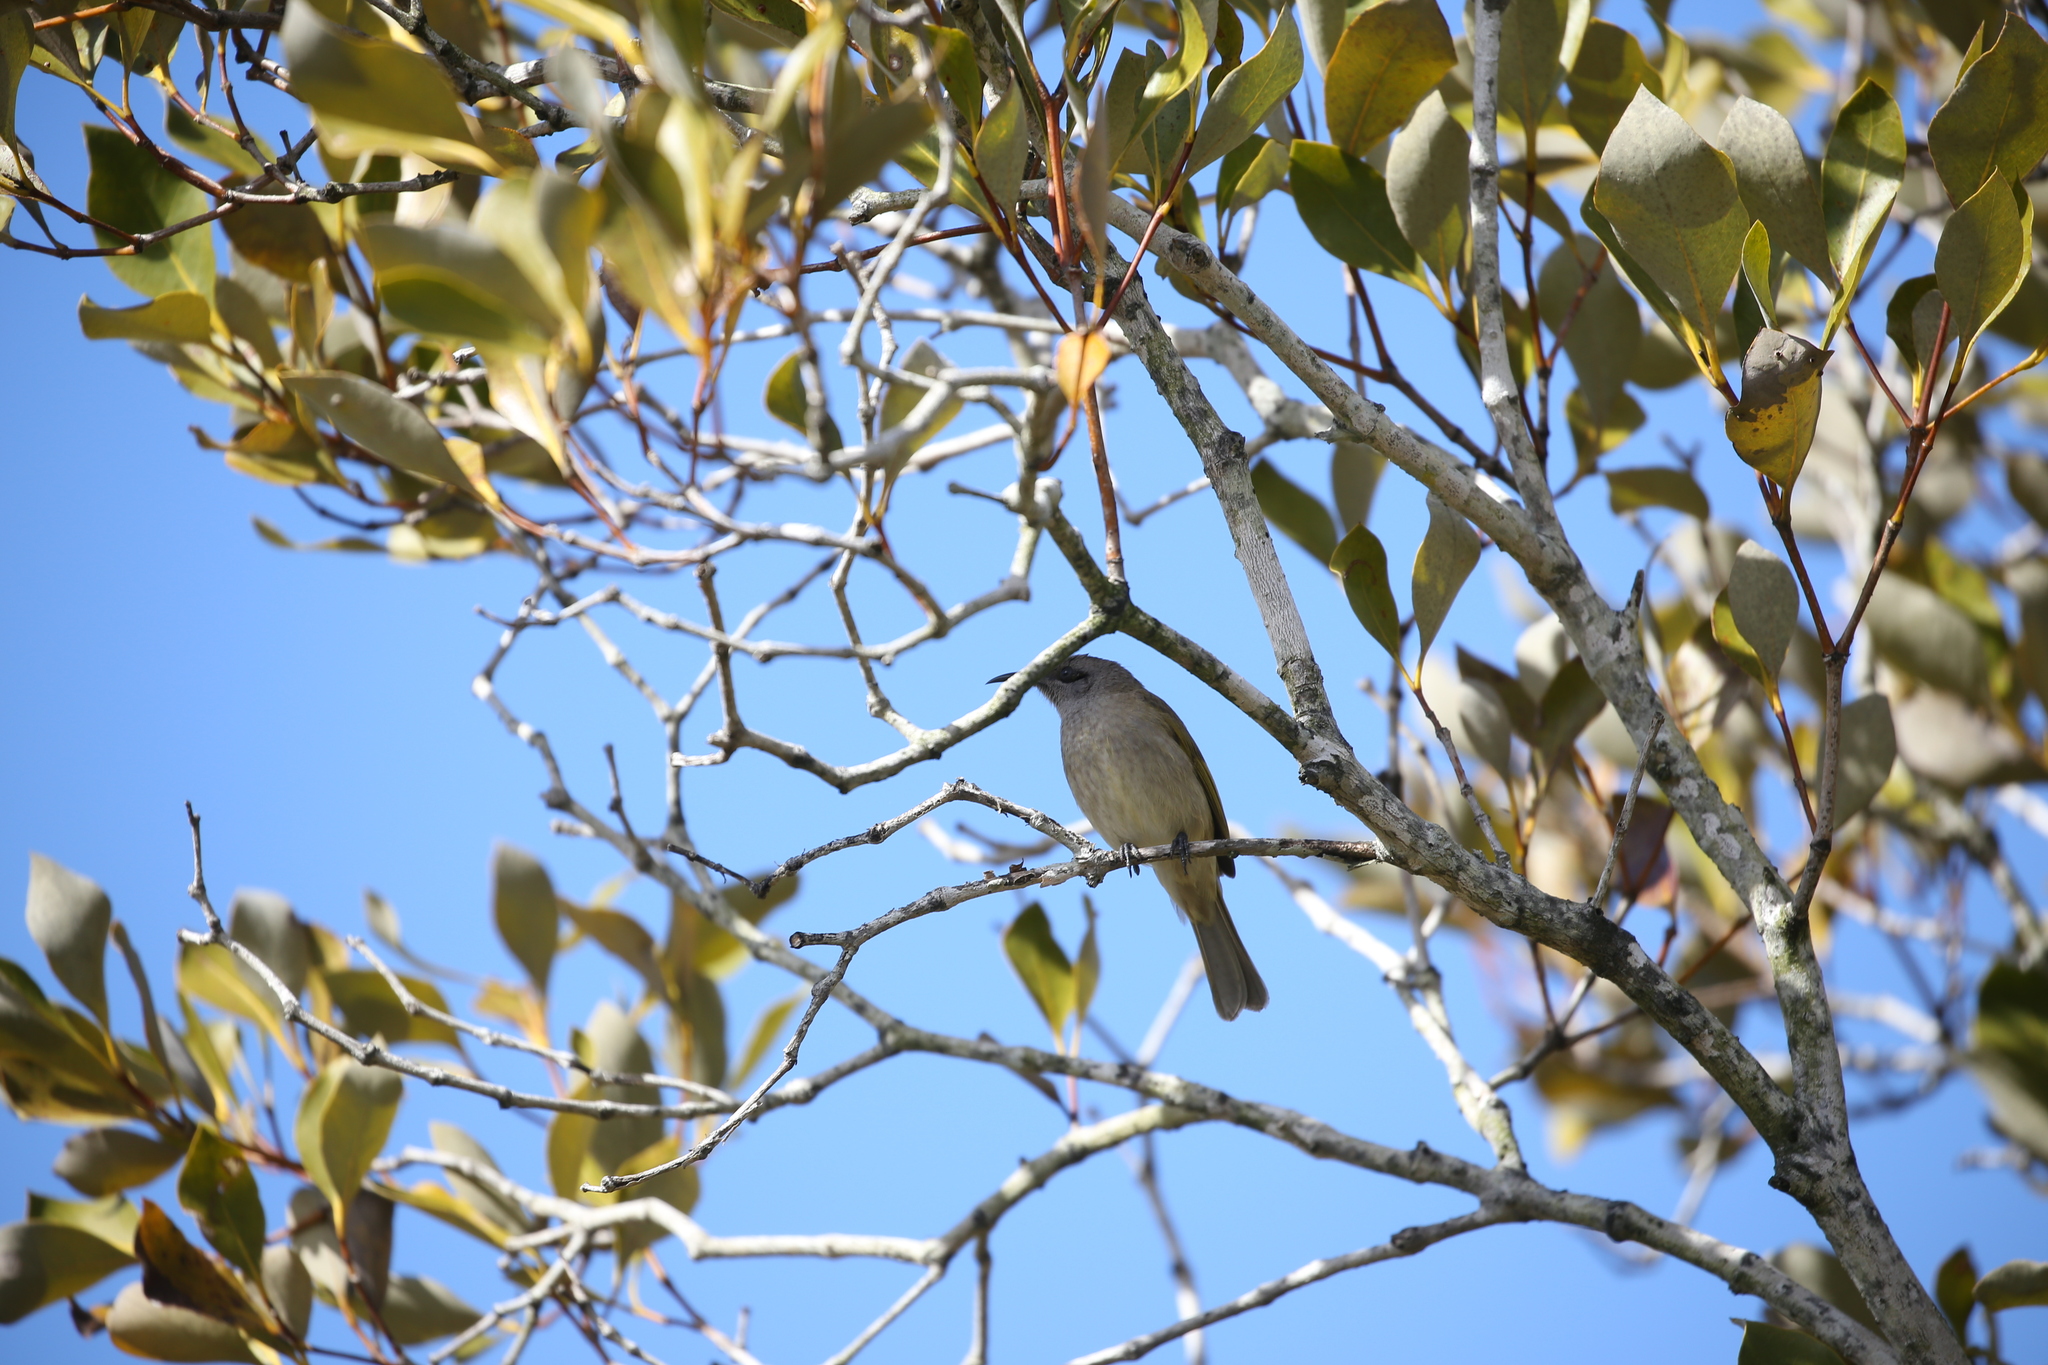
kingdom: Animalia
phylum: Chordata
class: Aves
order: Passeriformes
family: Meliphagidae
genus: Lichmera
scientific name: Lichmera indistincta
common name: Brown honeyeater
